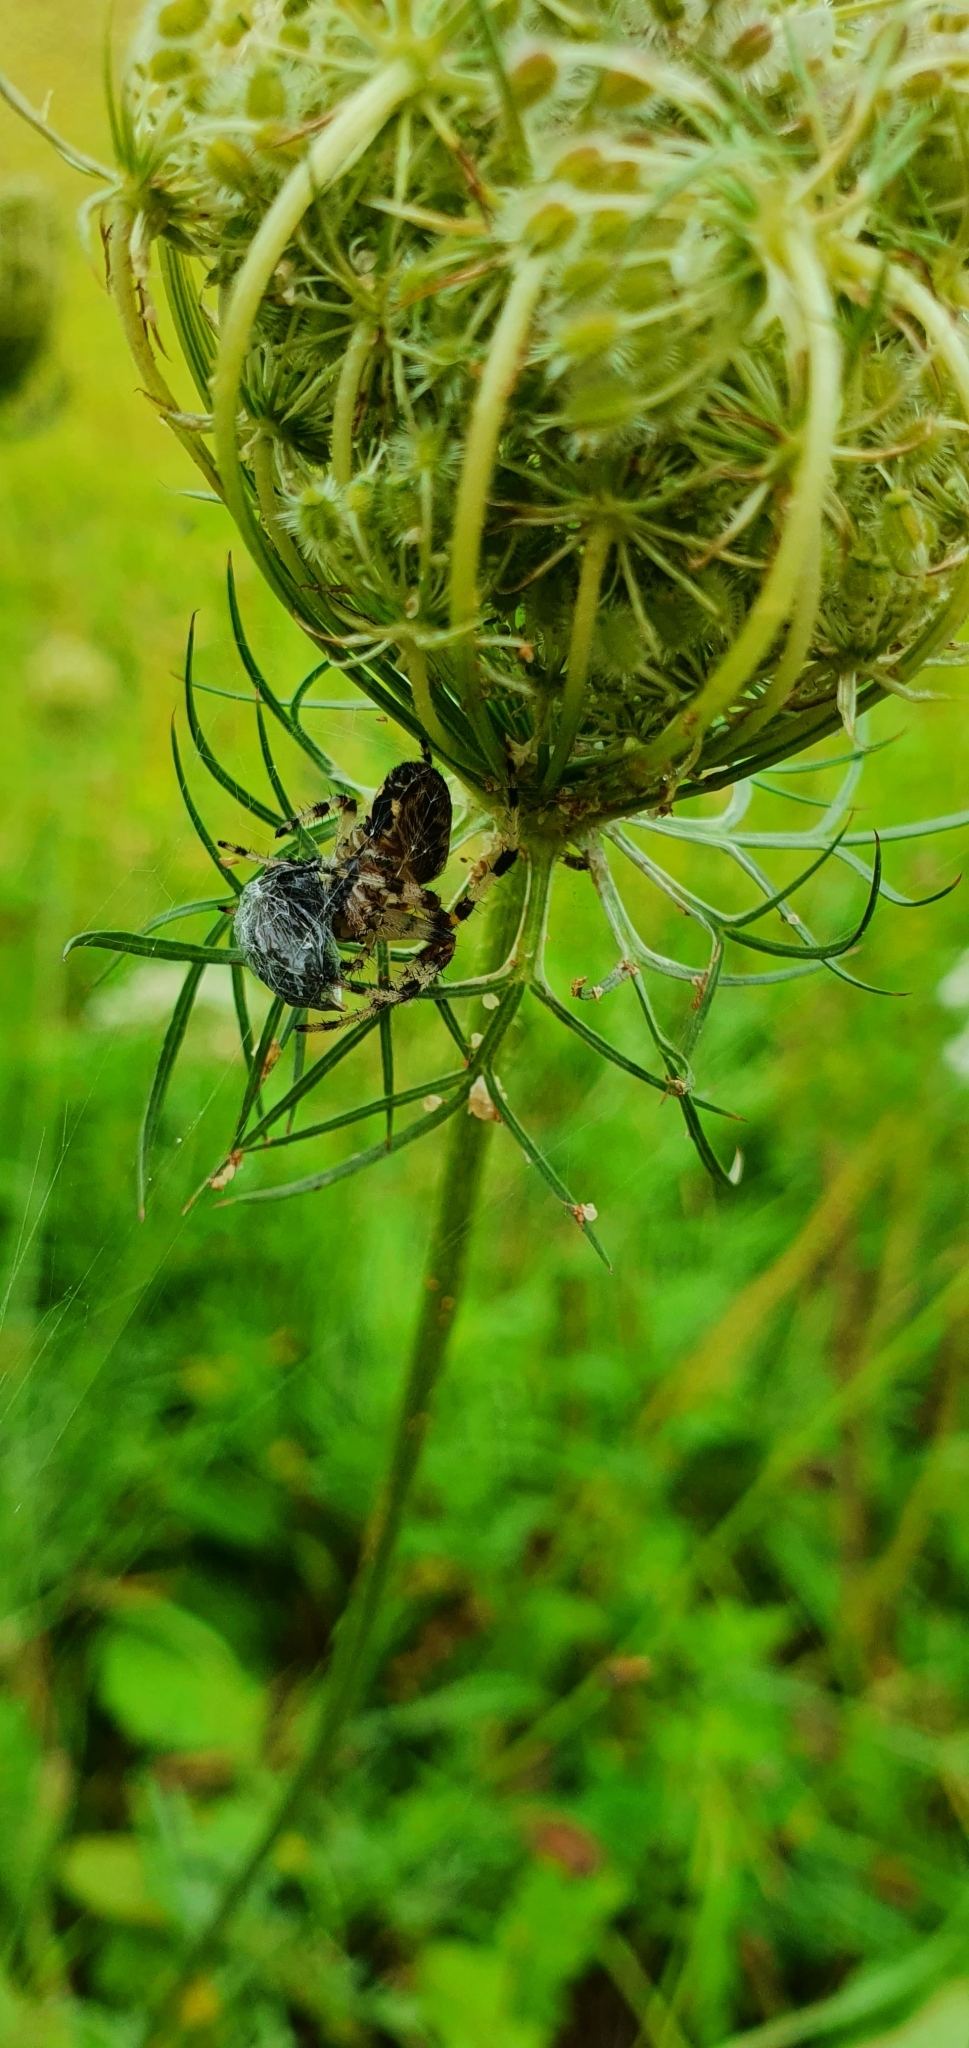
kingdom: Animalia
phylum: Arthropoda
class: Arachnida
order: Araneae
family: Araneidae
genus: Araneus
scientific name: Araneus diadematus
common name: Cross orbweaver
